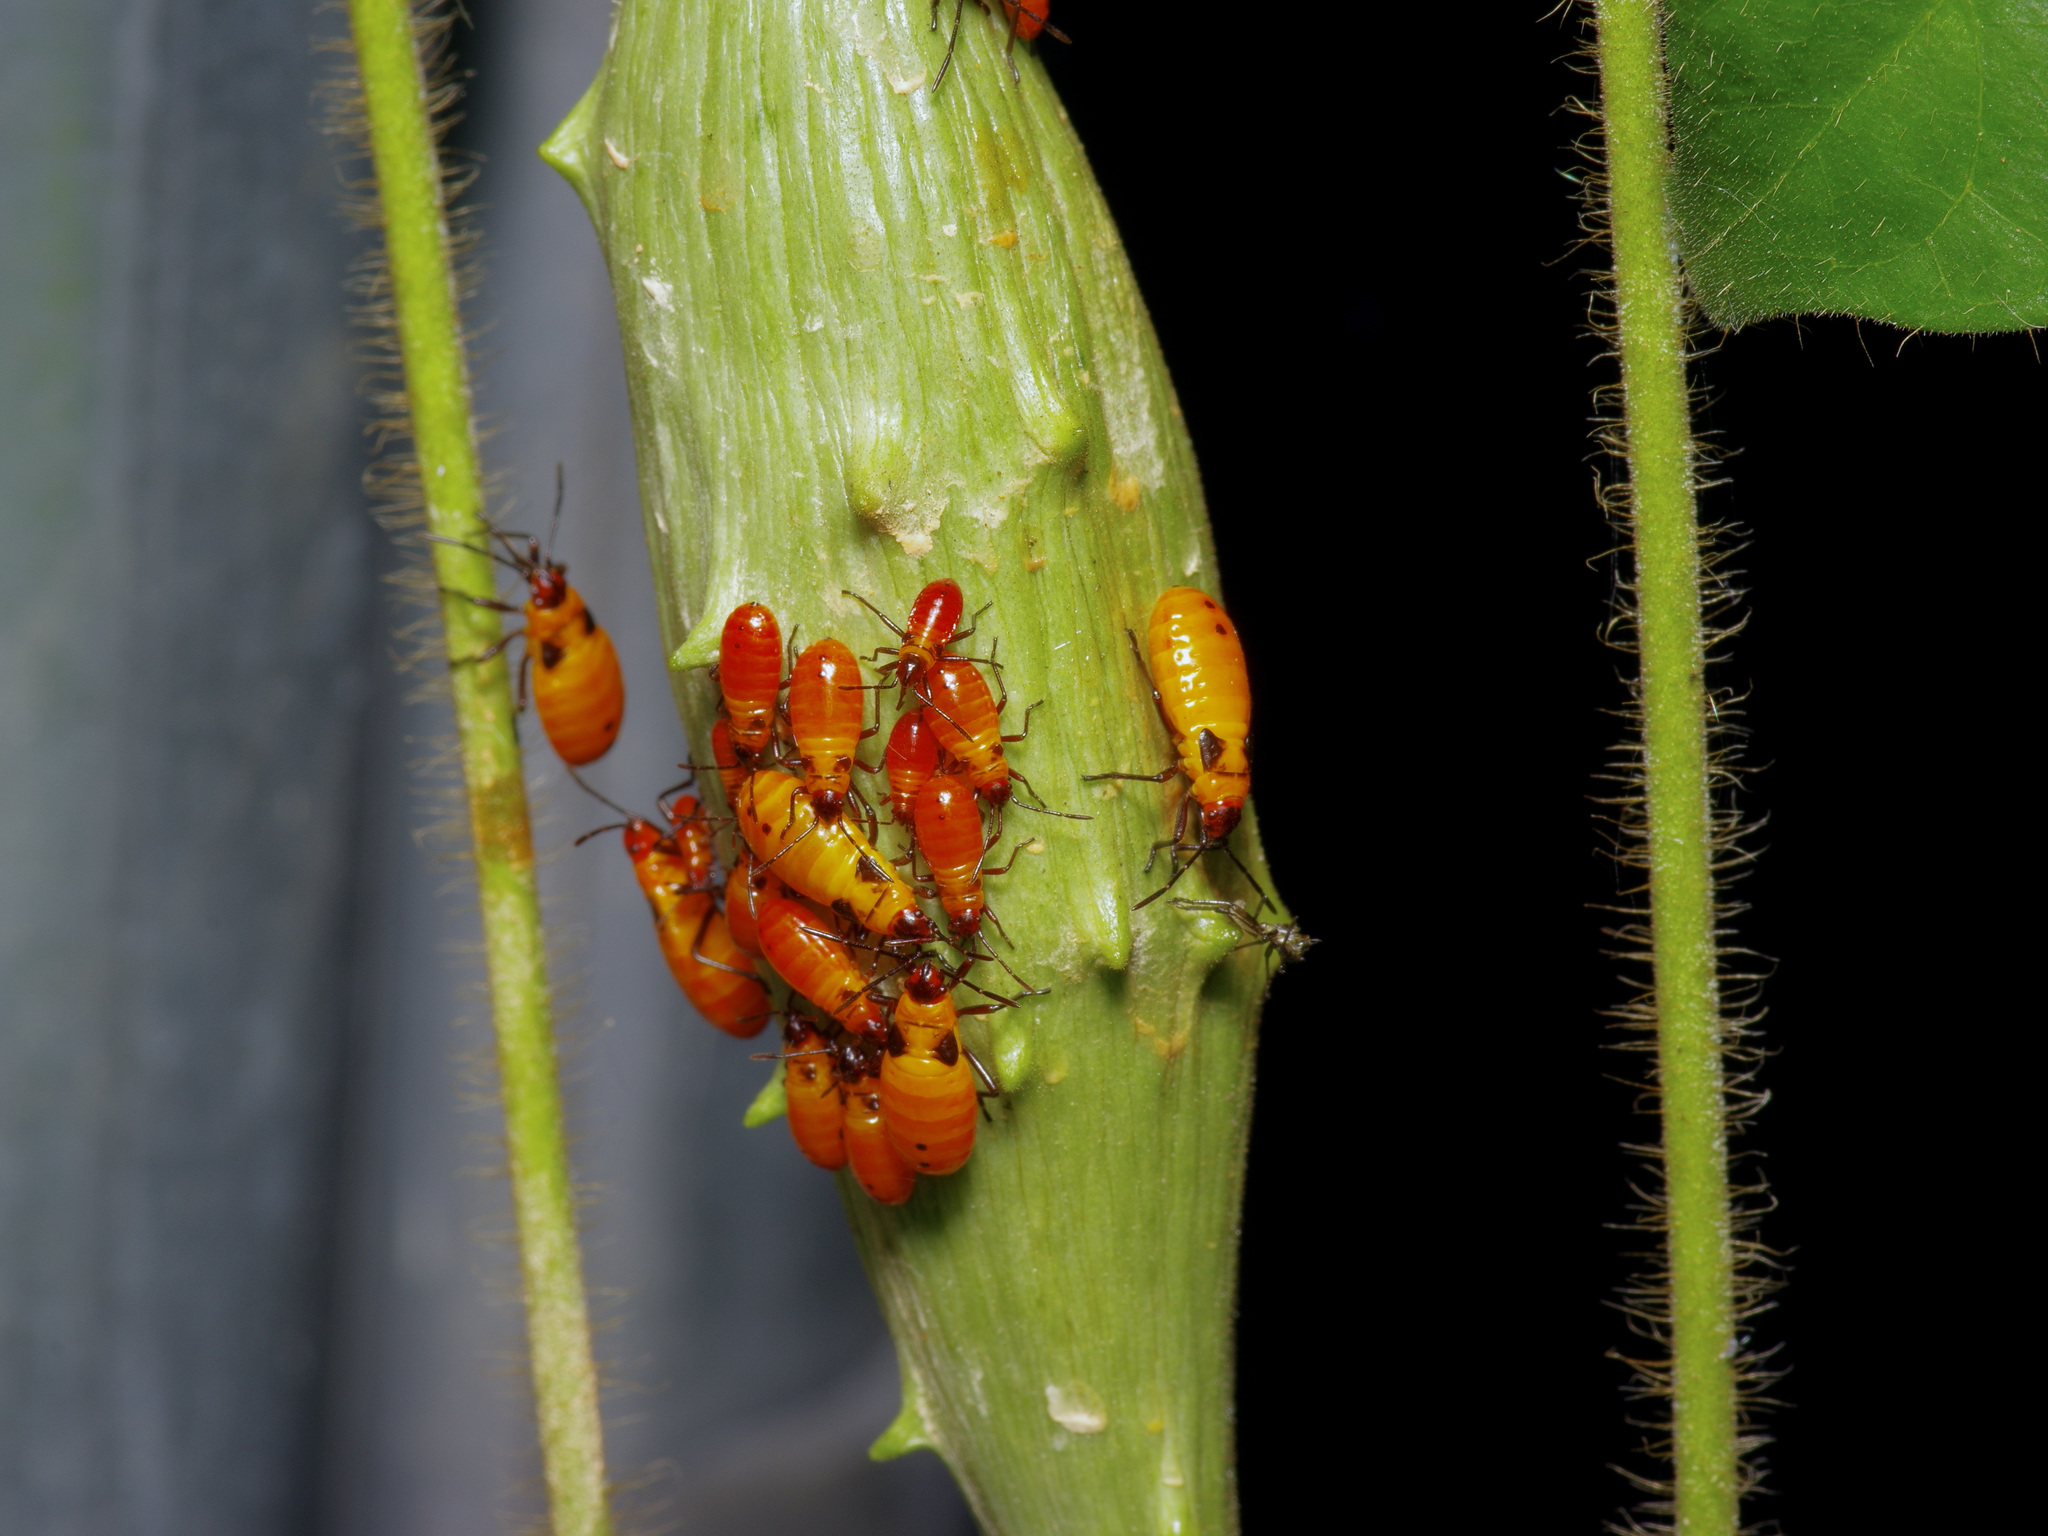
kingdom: Animalia
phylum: Arthropoda
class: Insecta
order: Hemiptera
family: Lygaeidae
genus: Oncopeltus
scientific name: Oncopeltus fasciatus
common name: Large milkweed bug
